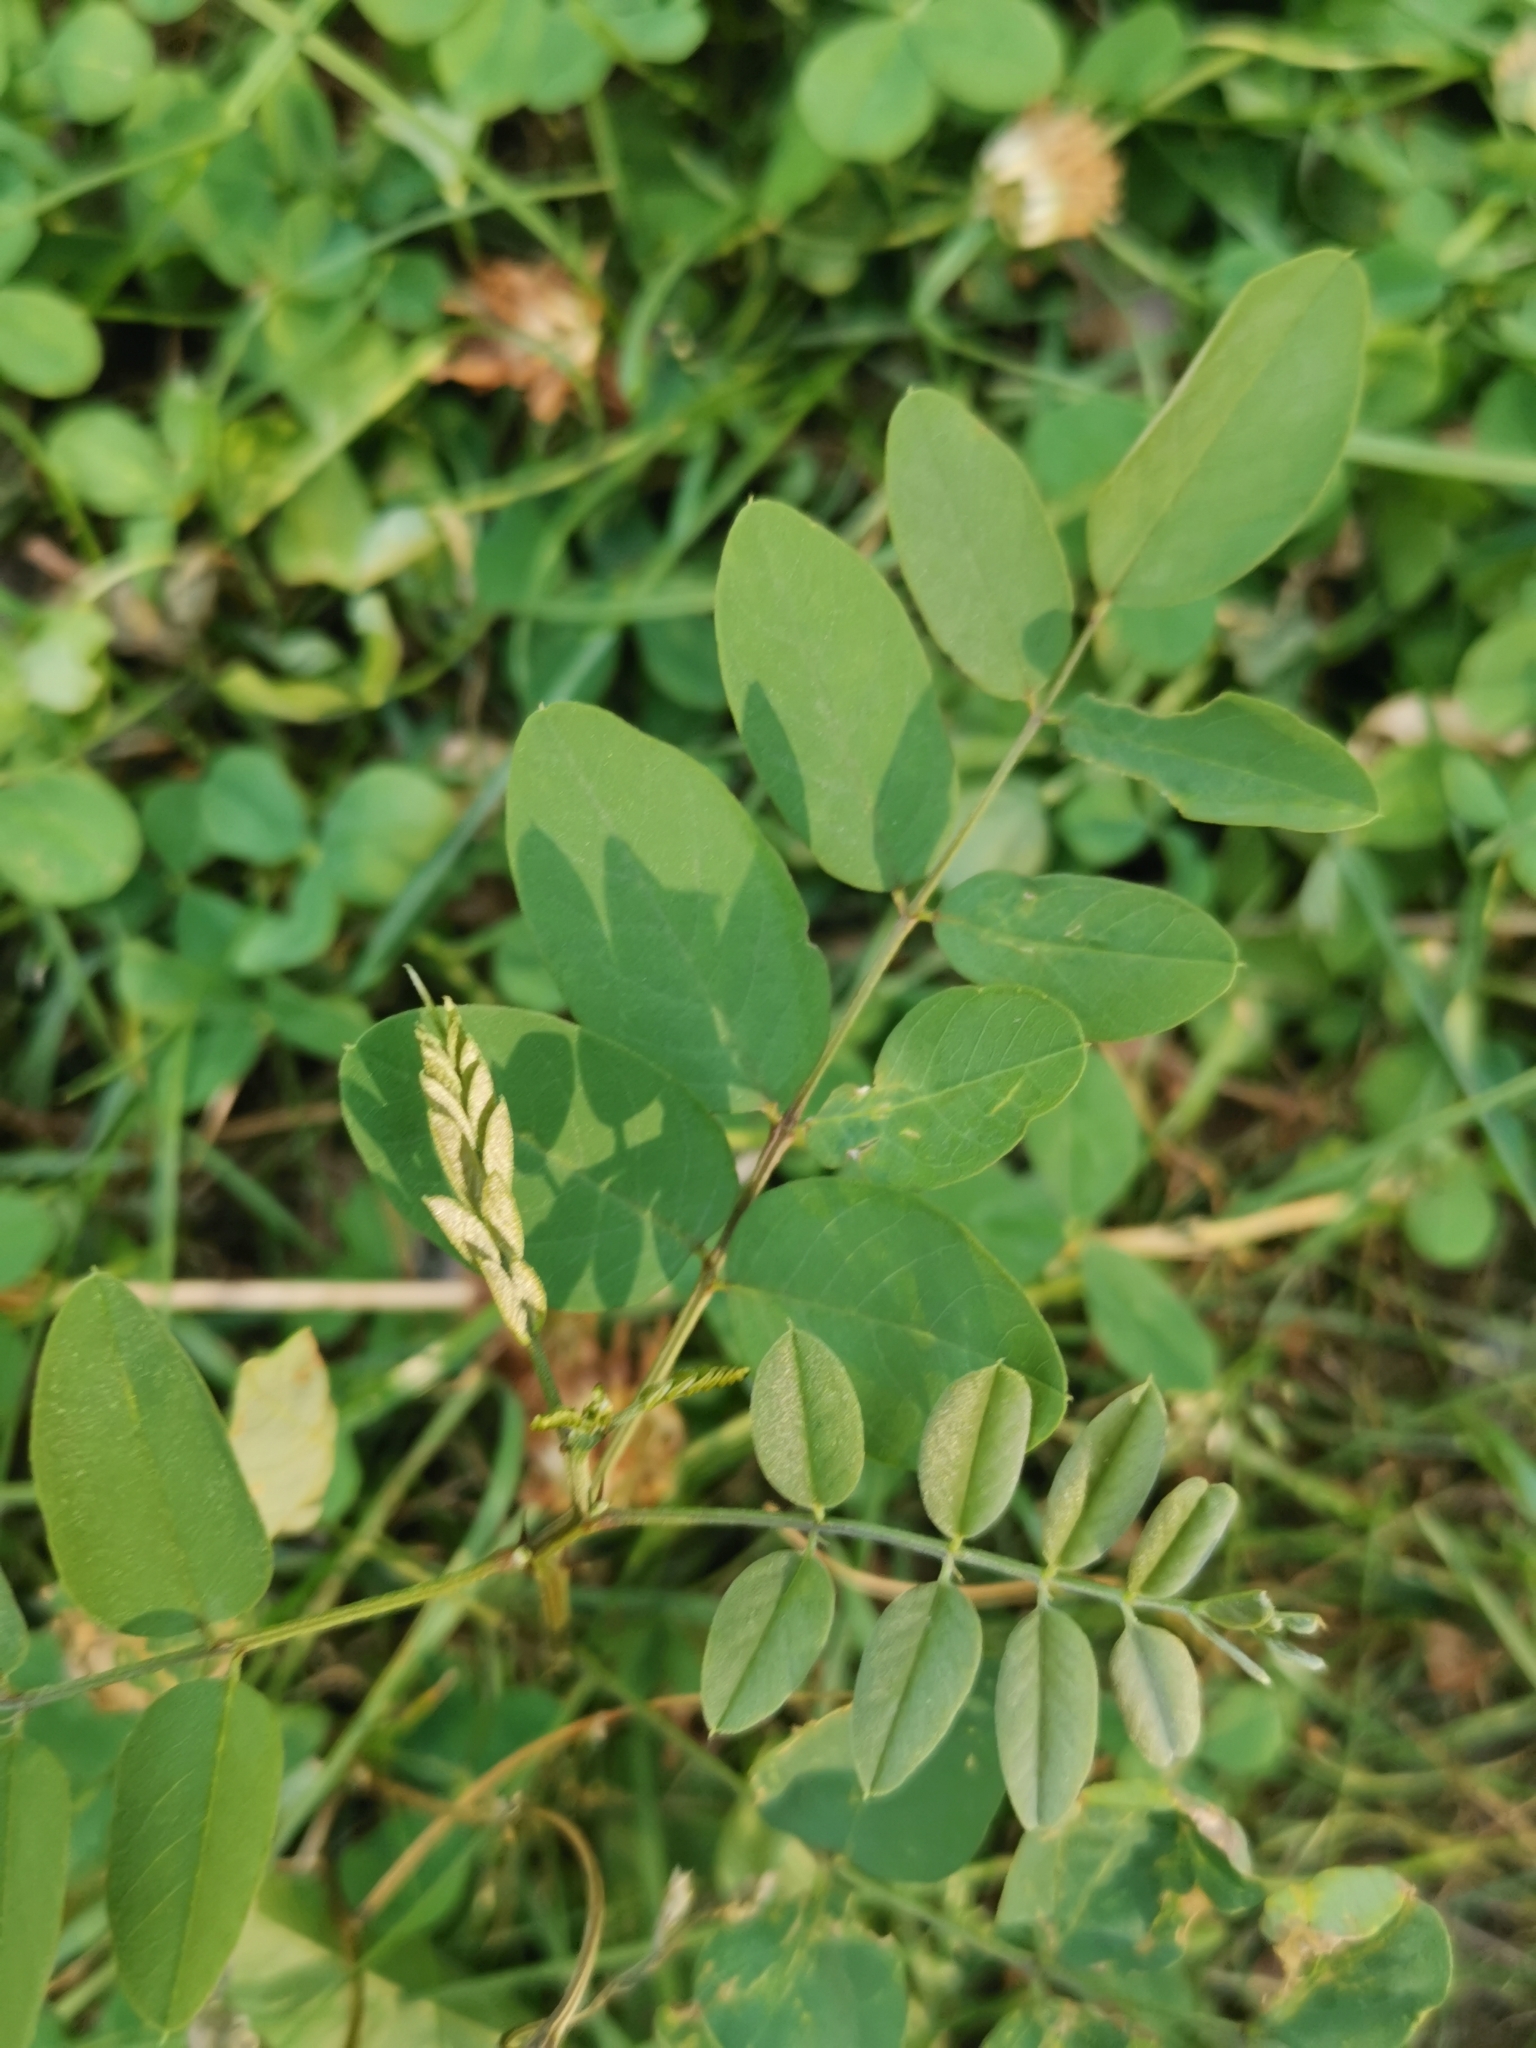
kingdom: Plantae
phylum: Tracheophyta
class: Magnoliopsida
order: Fabales
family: Fabaceae
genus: Astragalus
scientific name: Astragalus glycyphyllos
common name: Wild liquorice
